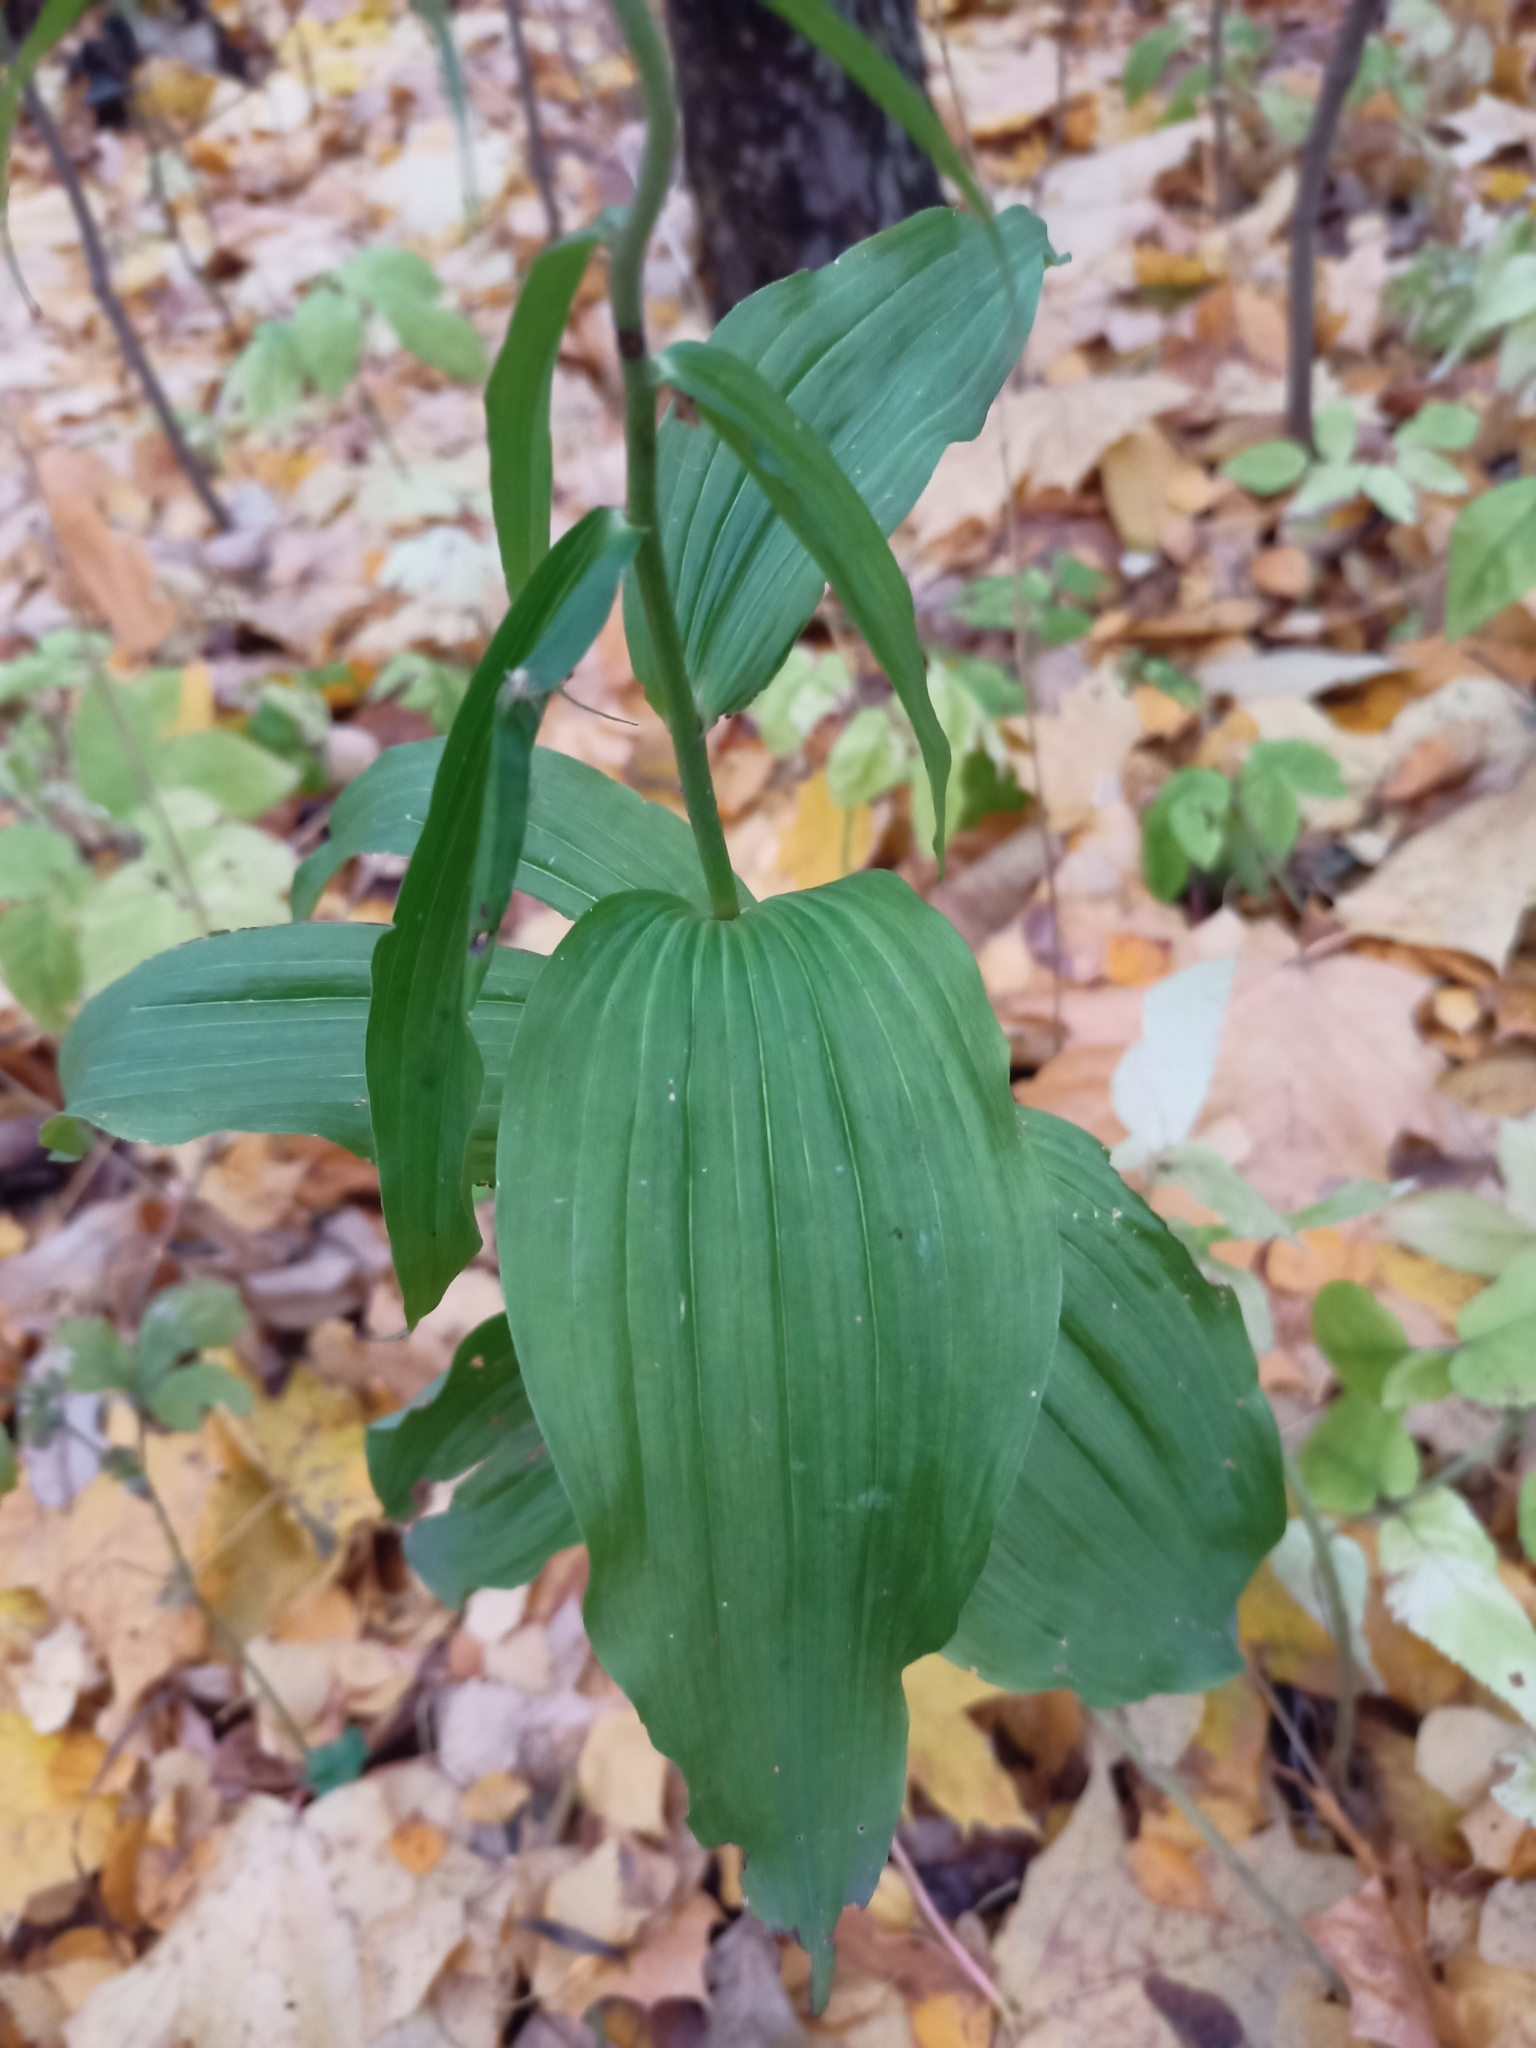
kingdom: Plantae
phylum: Tracheophyta
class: Liliopsida
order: Asparagales
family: Orchidaceae
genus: Epipactis
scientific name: Epipactis helleborine
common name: Broad-leaved helleborine
